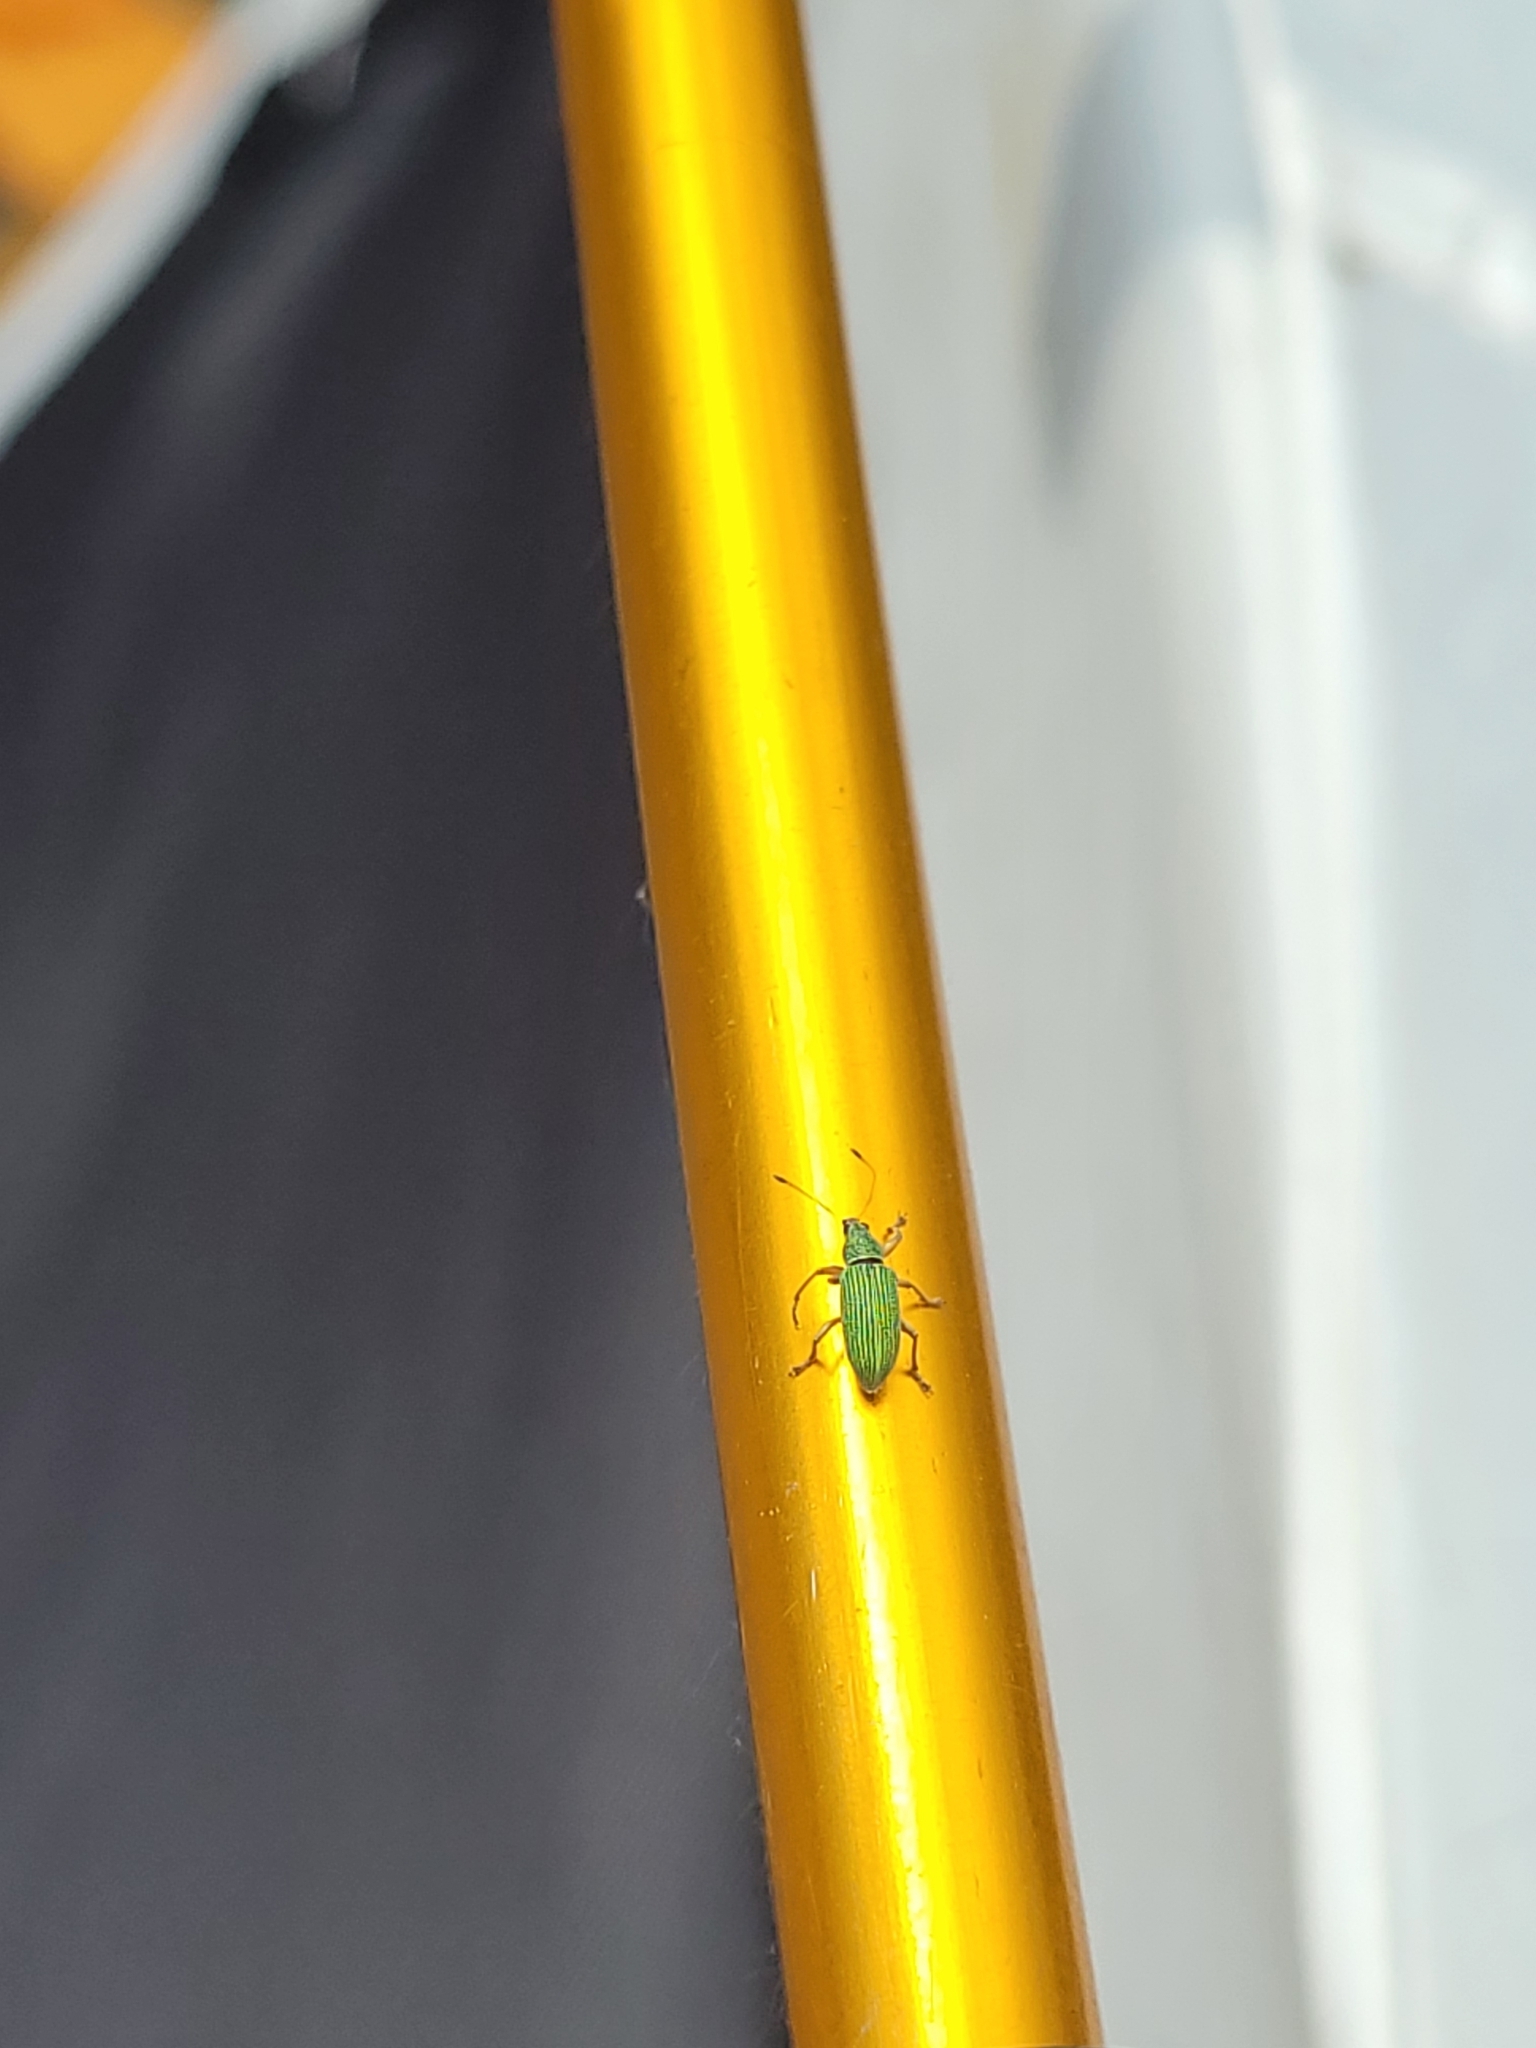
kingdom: Animalia
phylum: Arthropoda
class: Insecta
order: Coleoptera
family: Curculionidae
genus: Polydrusus
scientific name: Polydrusus formosus
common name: Weevil
